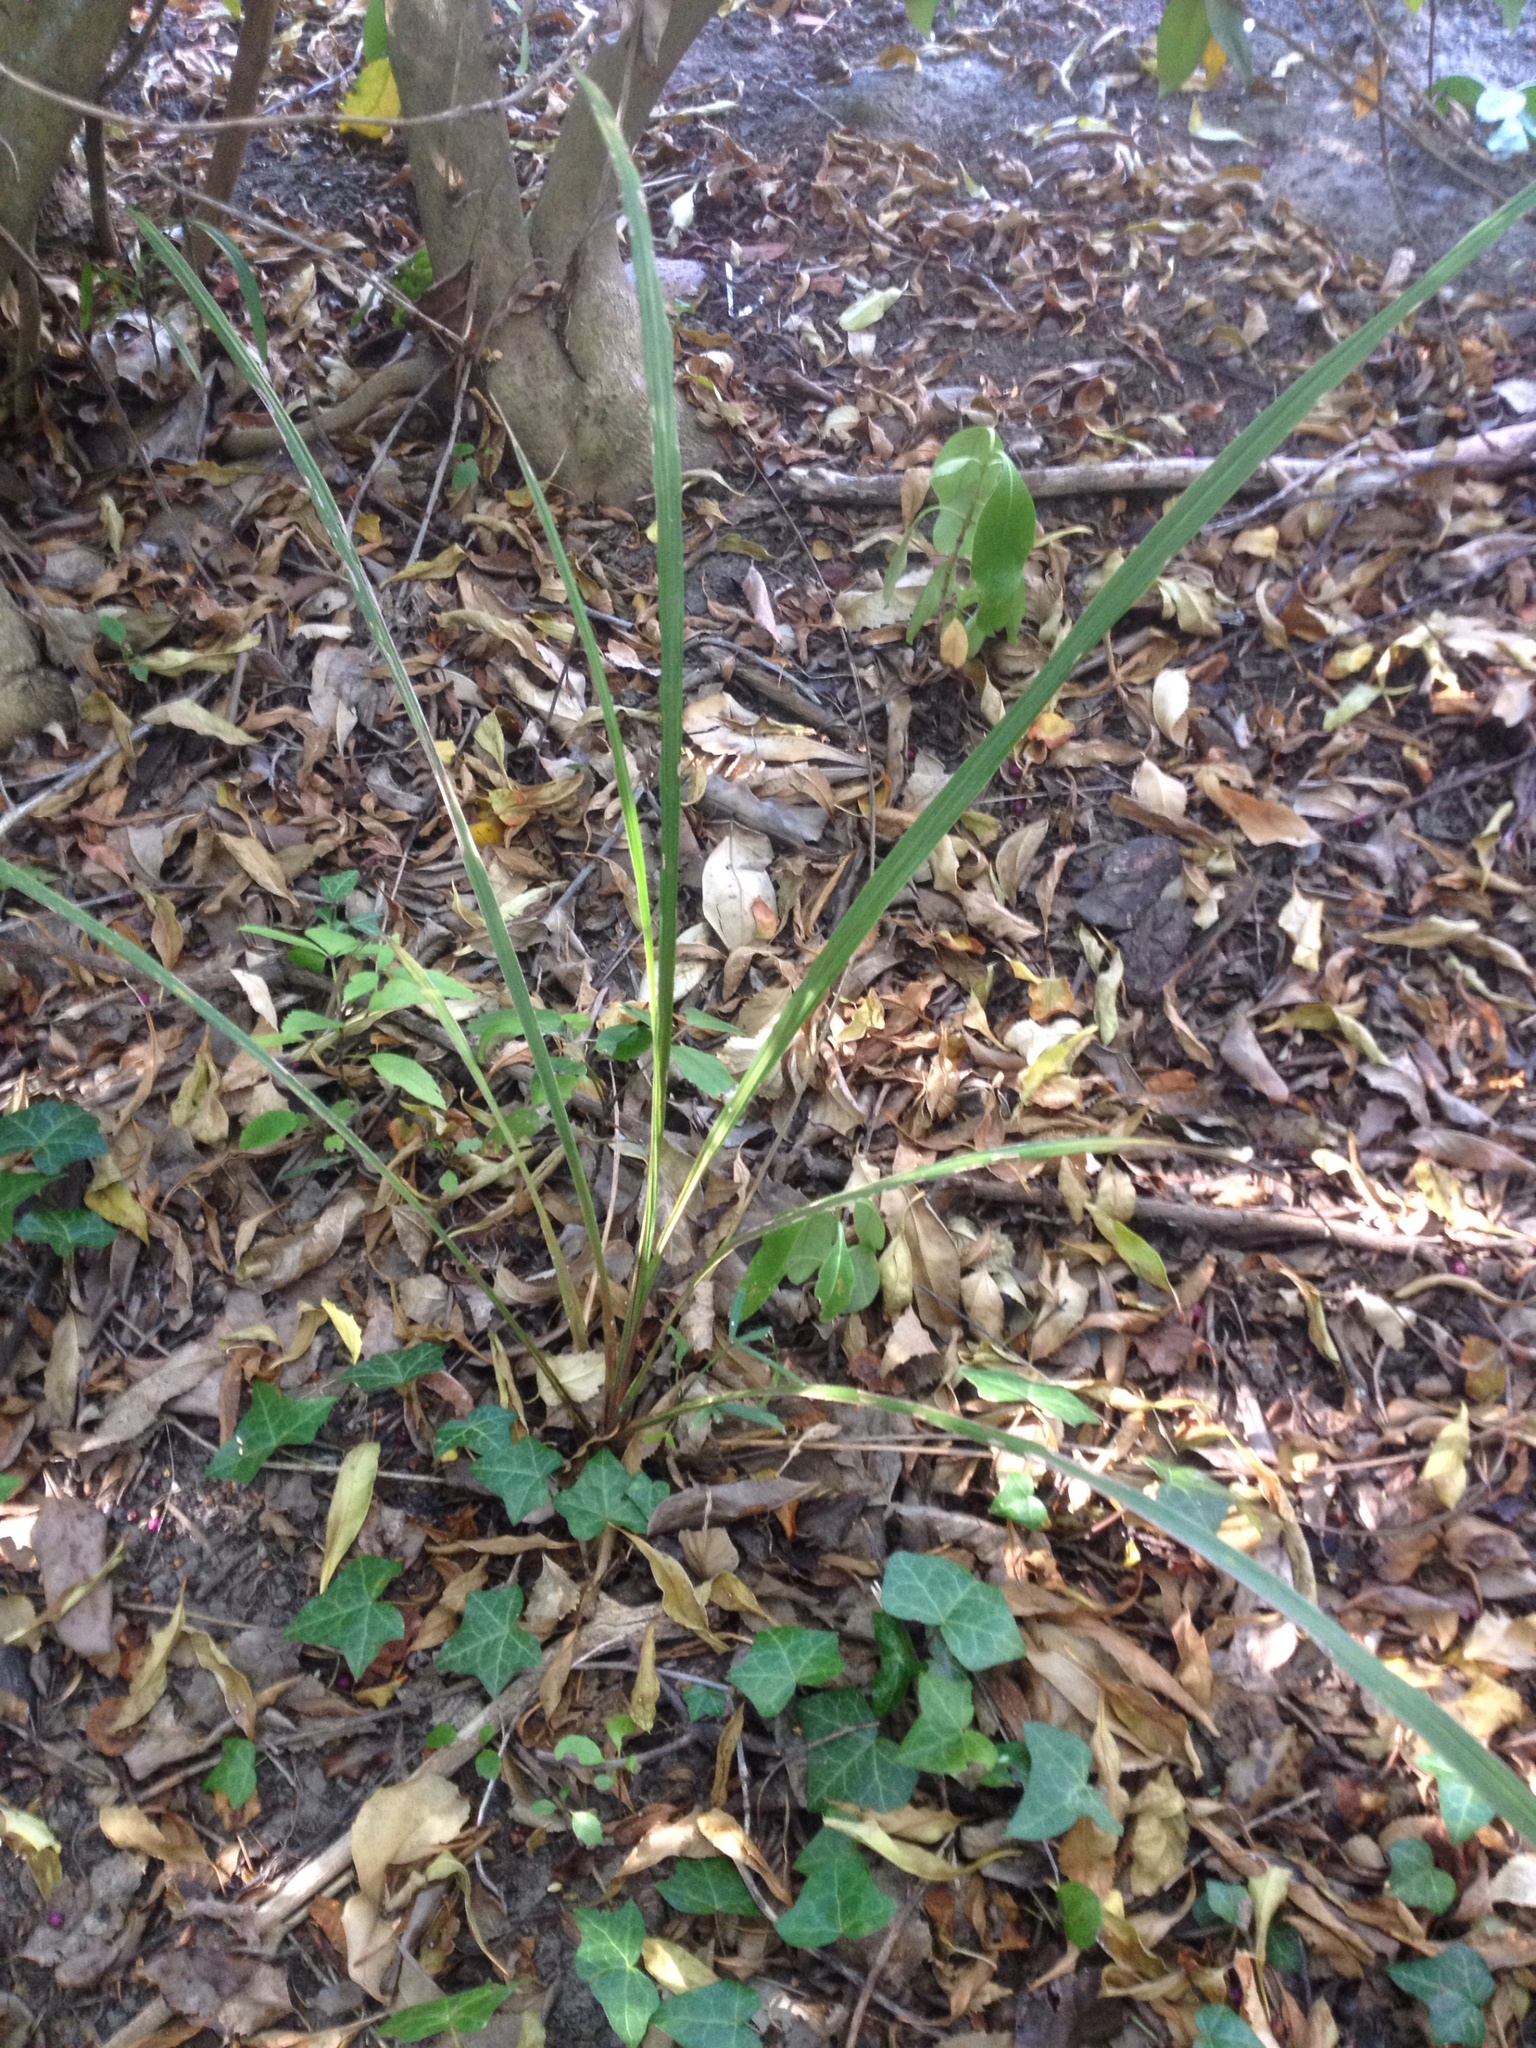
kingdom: Plantae
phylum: Tracheophyta
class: Liliopsida
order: Asparagales
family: Asparagaceae
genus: Cordyline
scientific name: Cordyline australis
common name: Cabbage-palm
